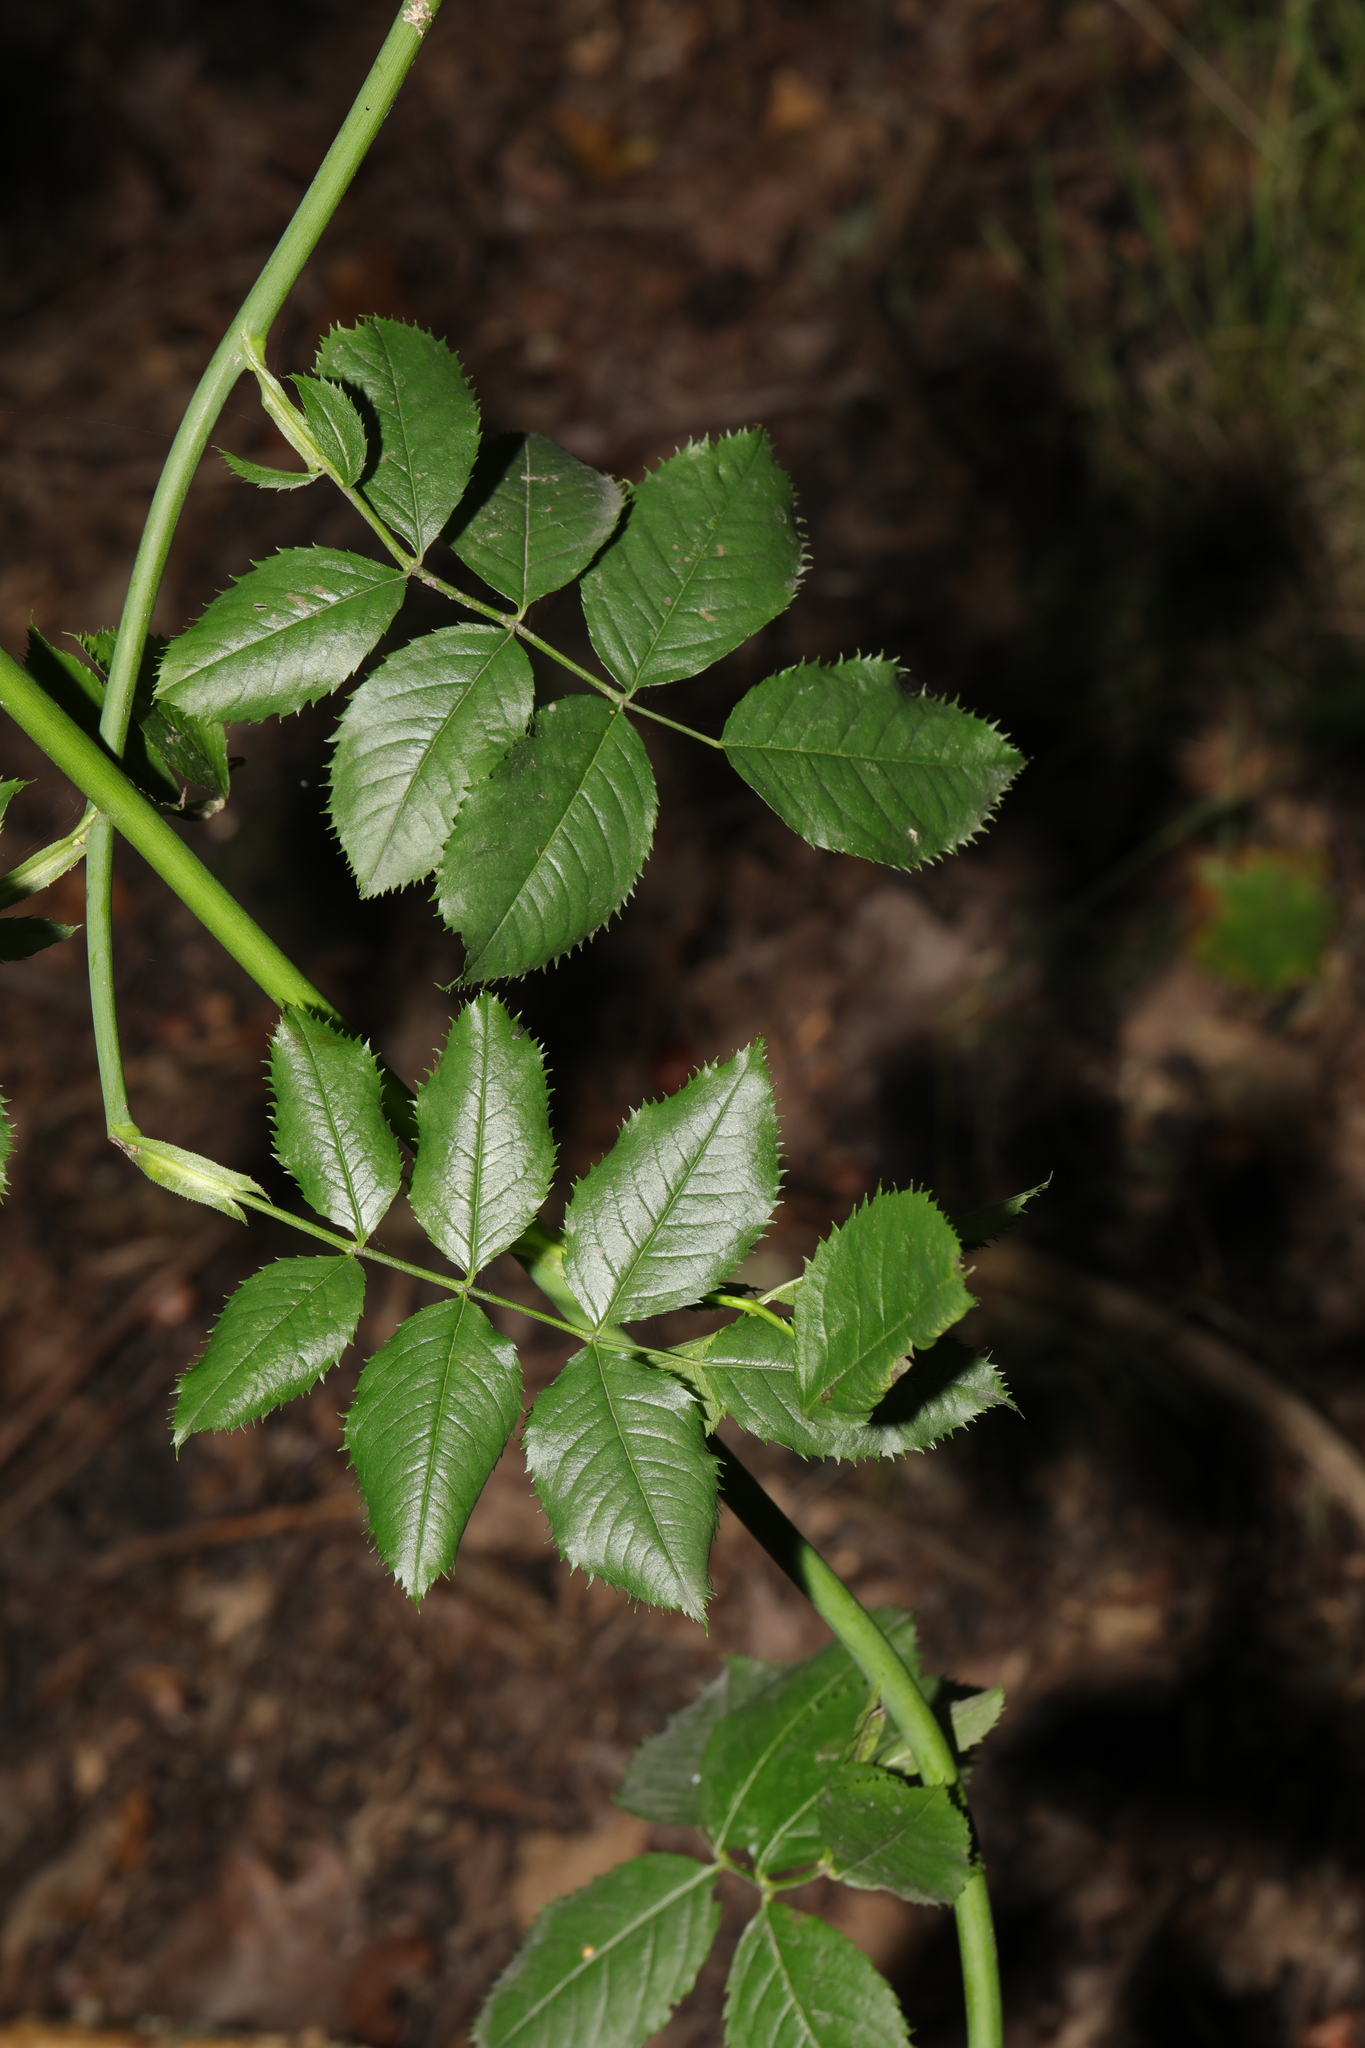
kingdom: Plantae
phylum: Tracheophyta
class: Magnoliopsida
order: Rosales
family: Rosaceae
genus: Rosa
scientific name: Rosa canina
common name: Dog rose
